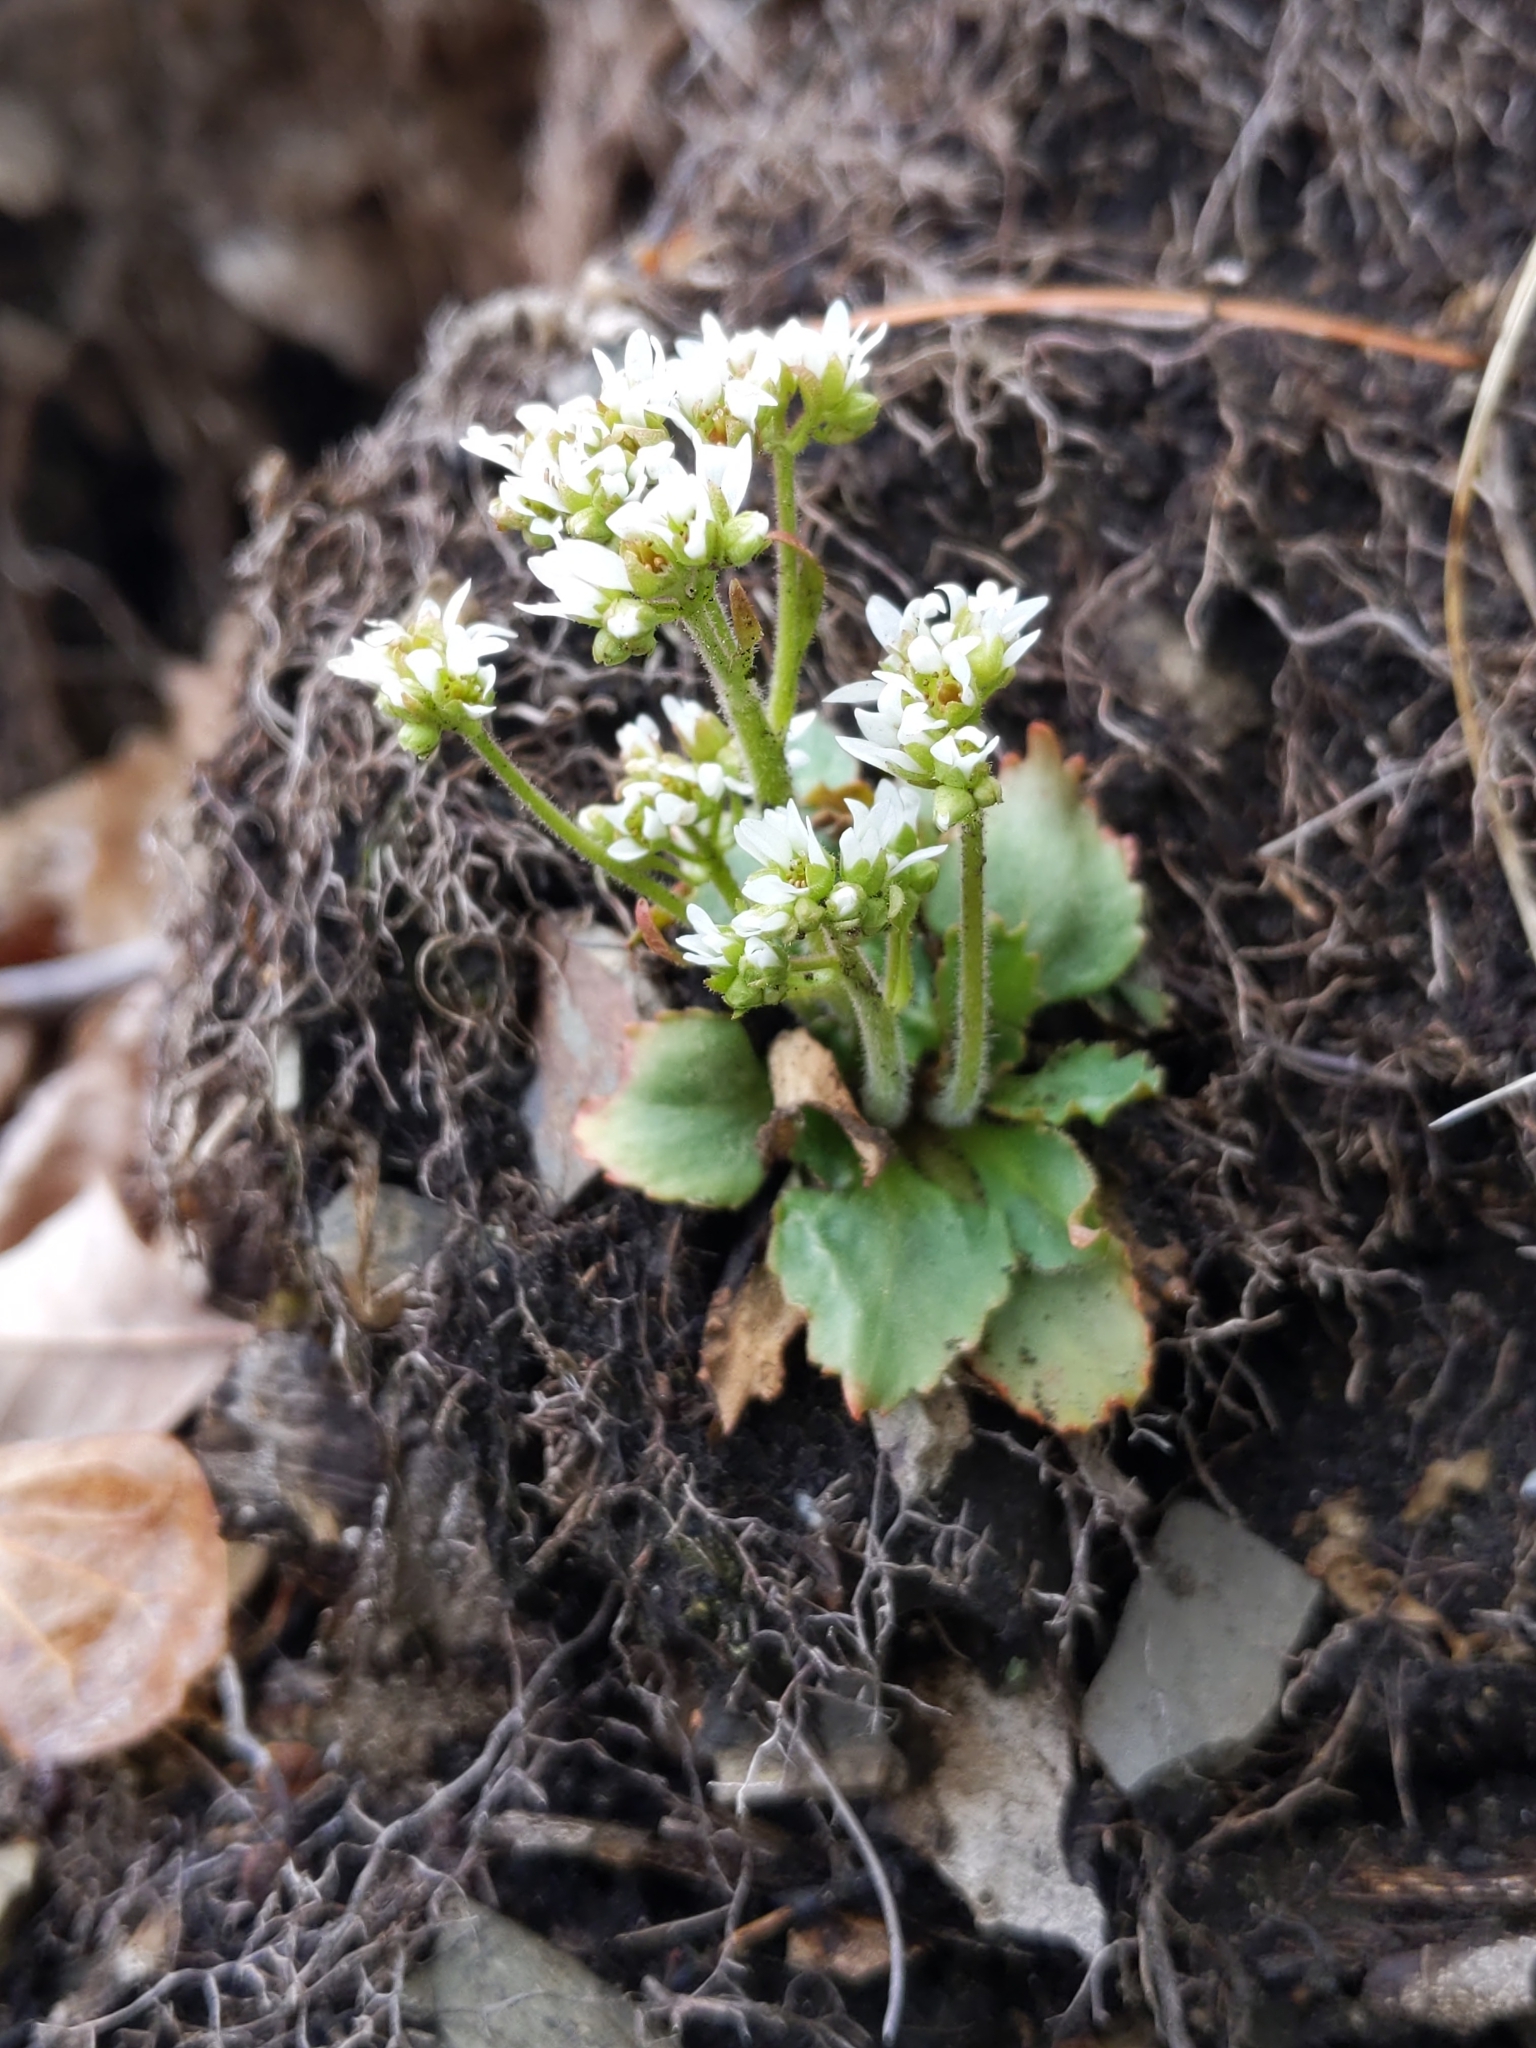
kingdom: Plantae
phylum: Tracheophyta
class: Magnoliopsida
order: Saxifragales
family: Saxifragaceae
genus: Micranthes
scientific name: Micranthes virginiensis
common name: Early saxifrage
